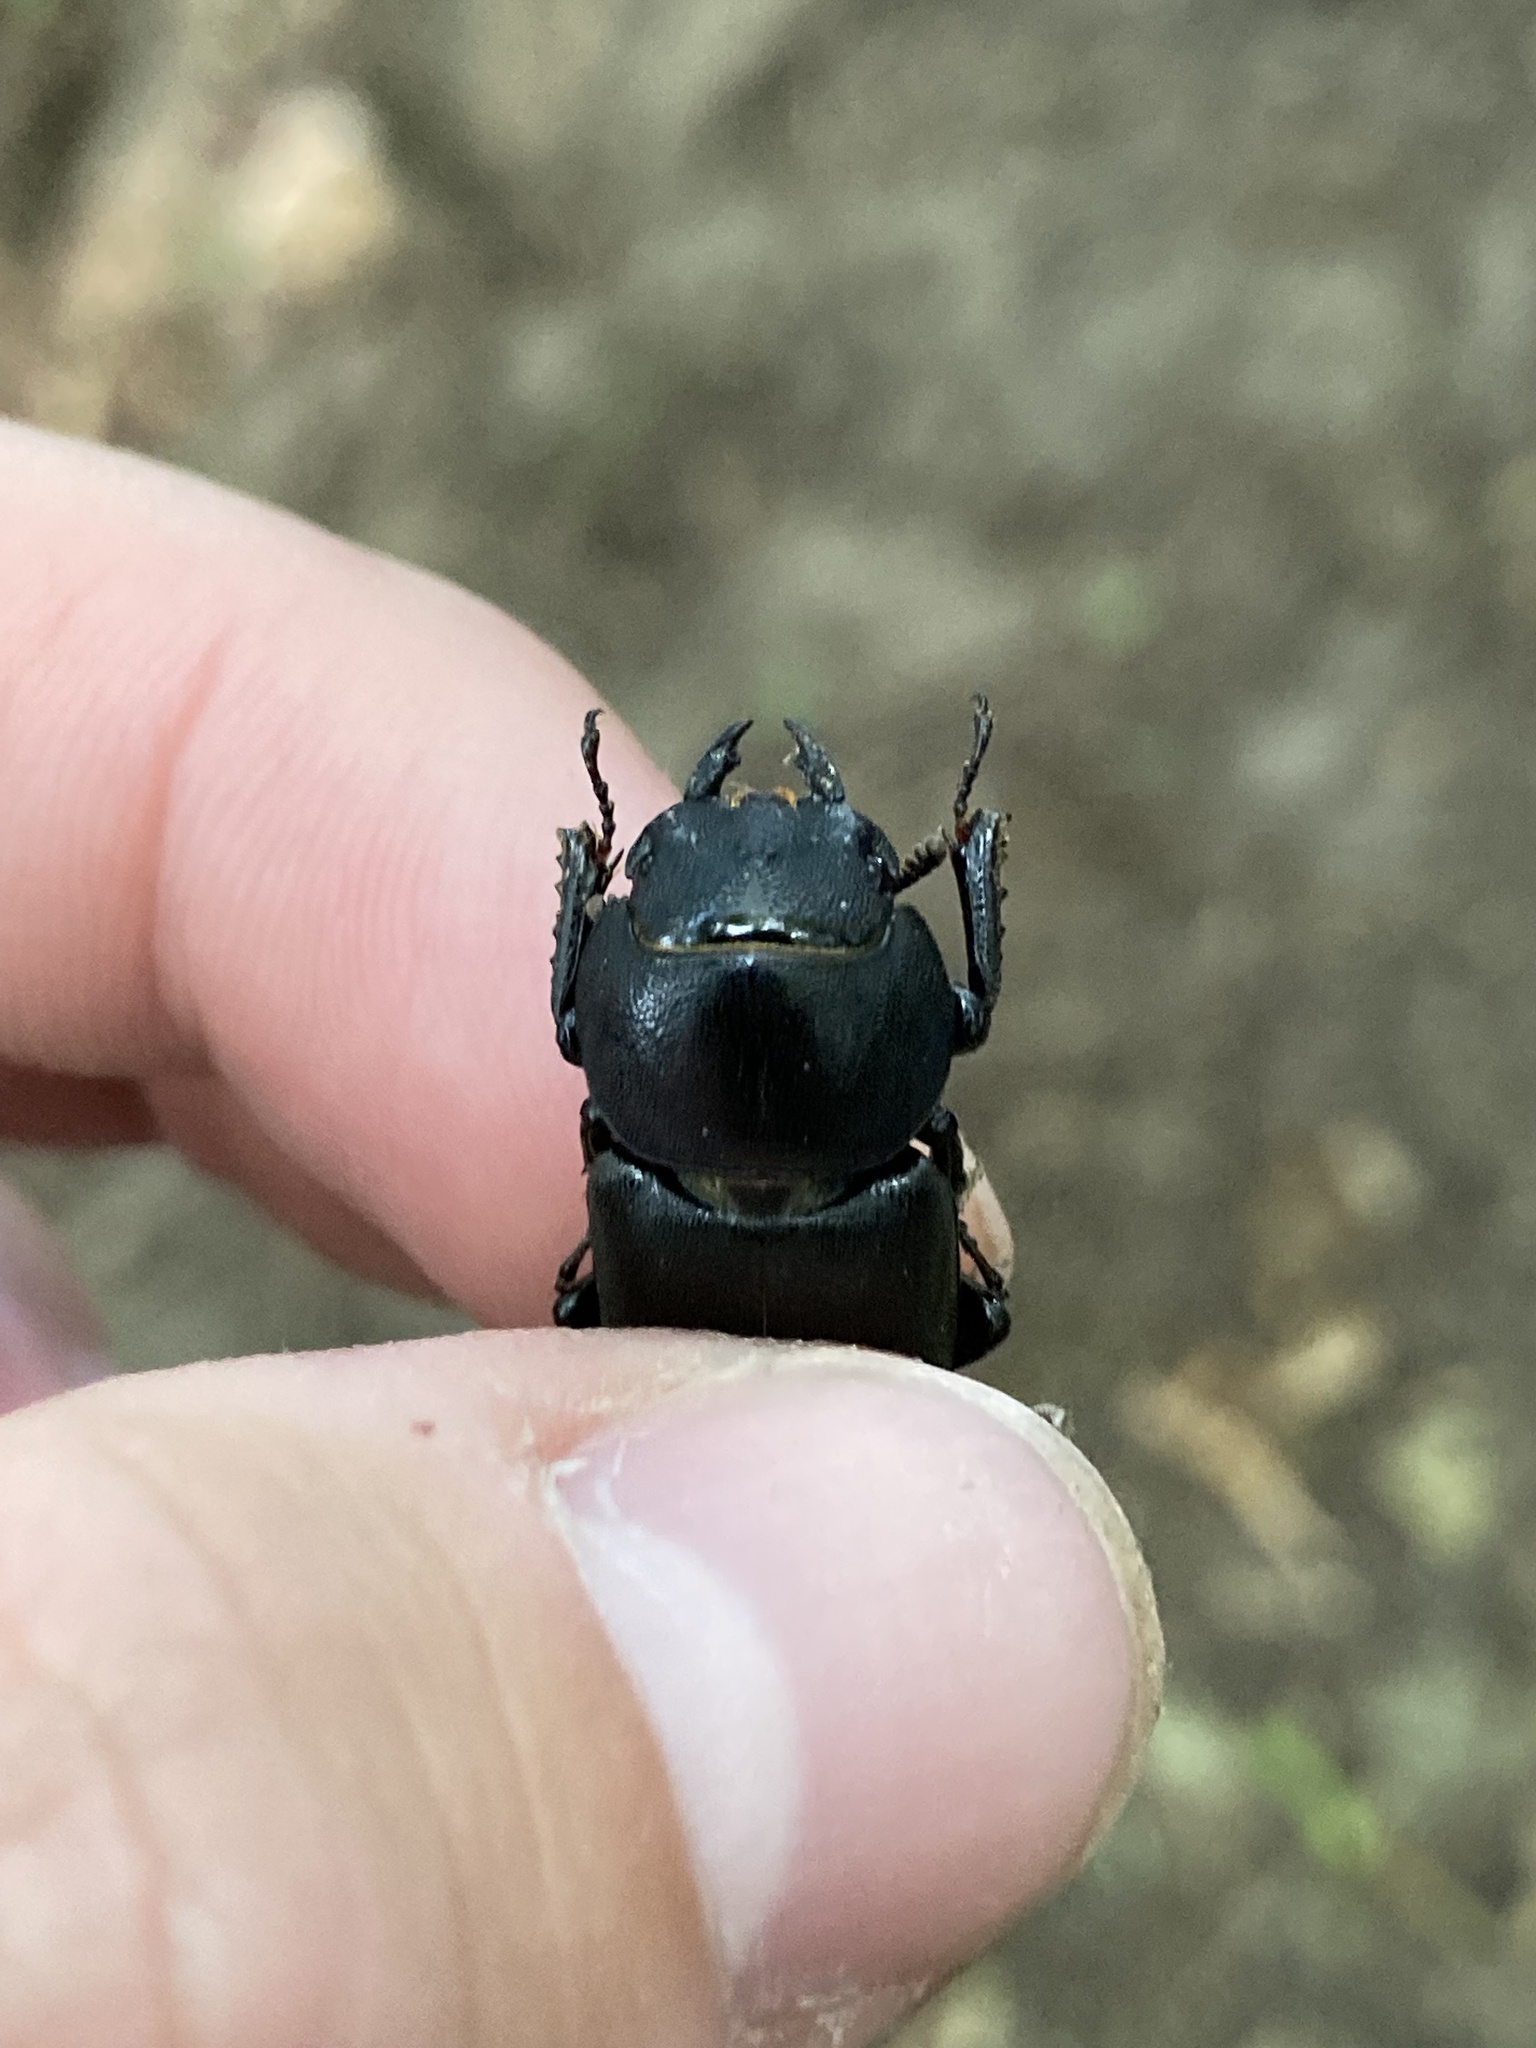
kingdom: Animalia
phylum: Arthropoda
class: Insecta
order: Coleoptera
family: Lucanidae
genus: Dorcus
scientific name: Dorcus parallelipipedus
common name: Lesser stag beetle
